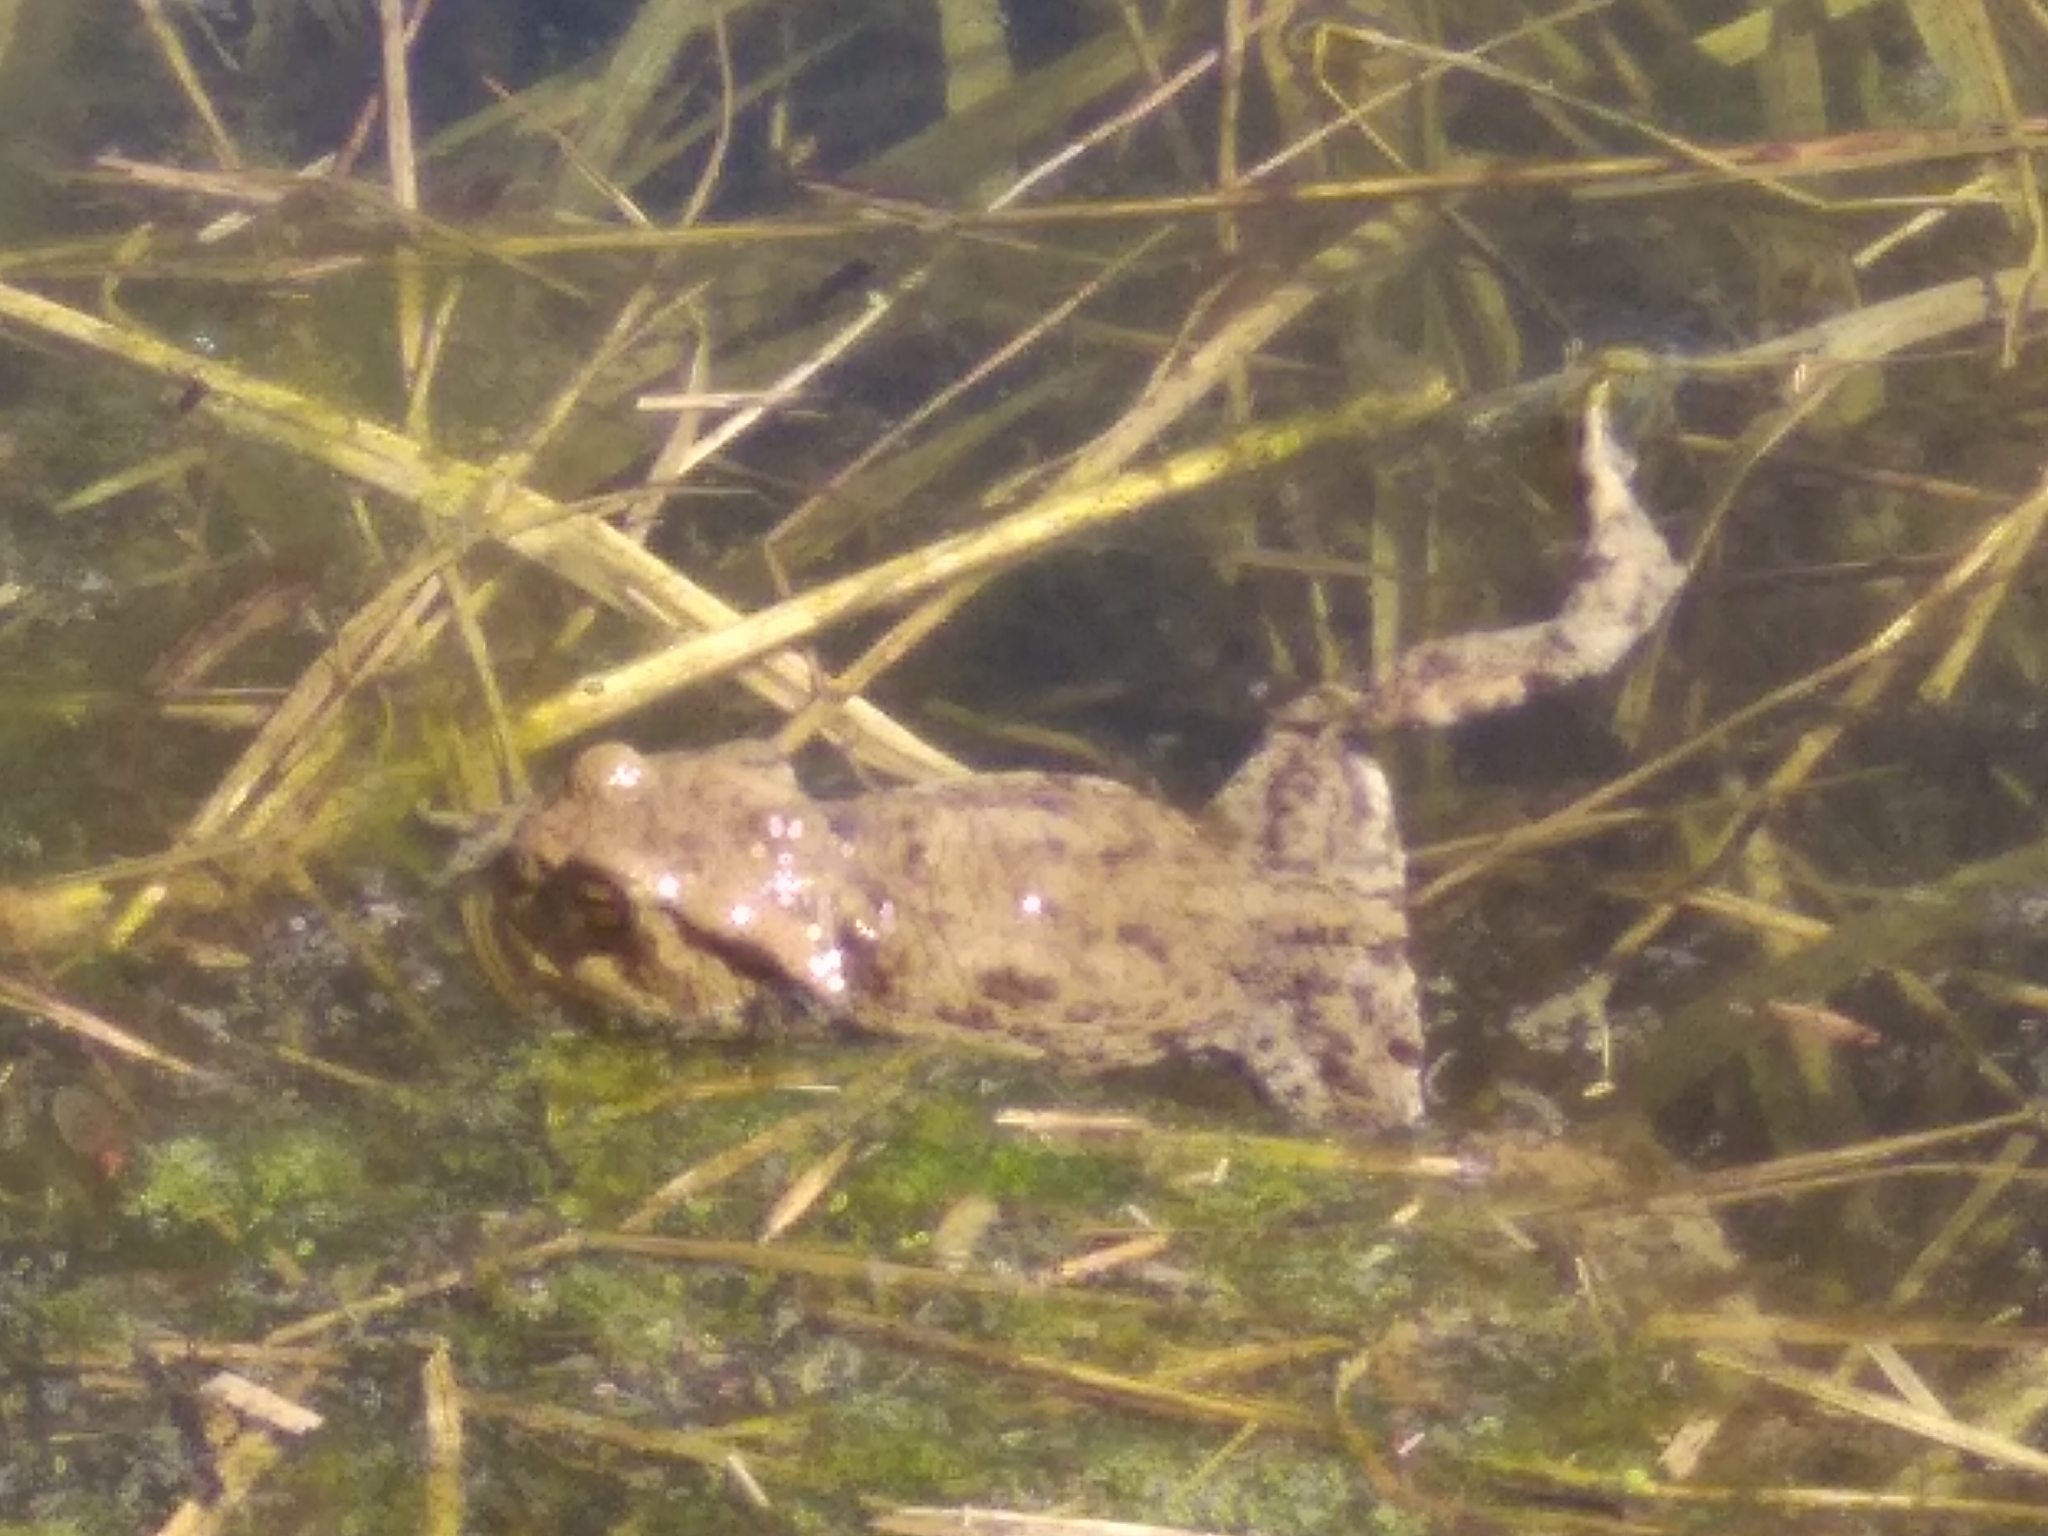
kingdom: Animalia
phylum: Chordata
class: Amphibia
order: Anura
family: Bufonidae
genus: Bufo
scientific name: Bufo bufo
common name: Common toad
